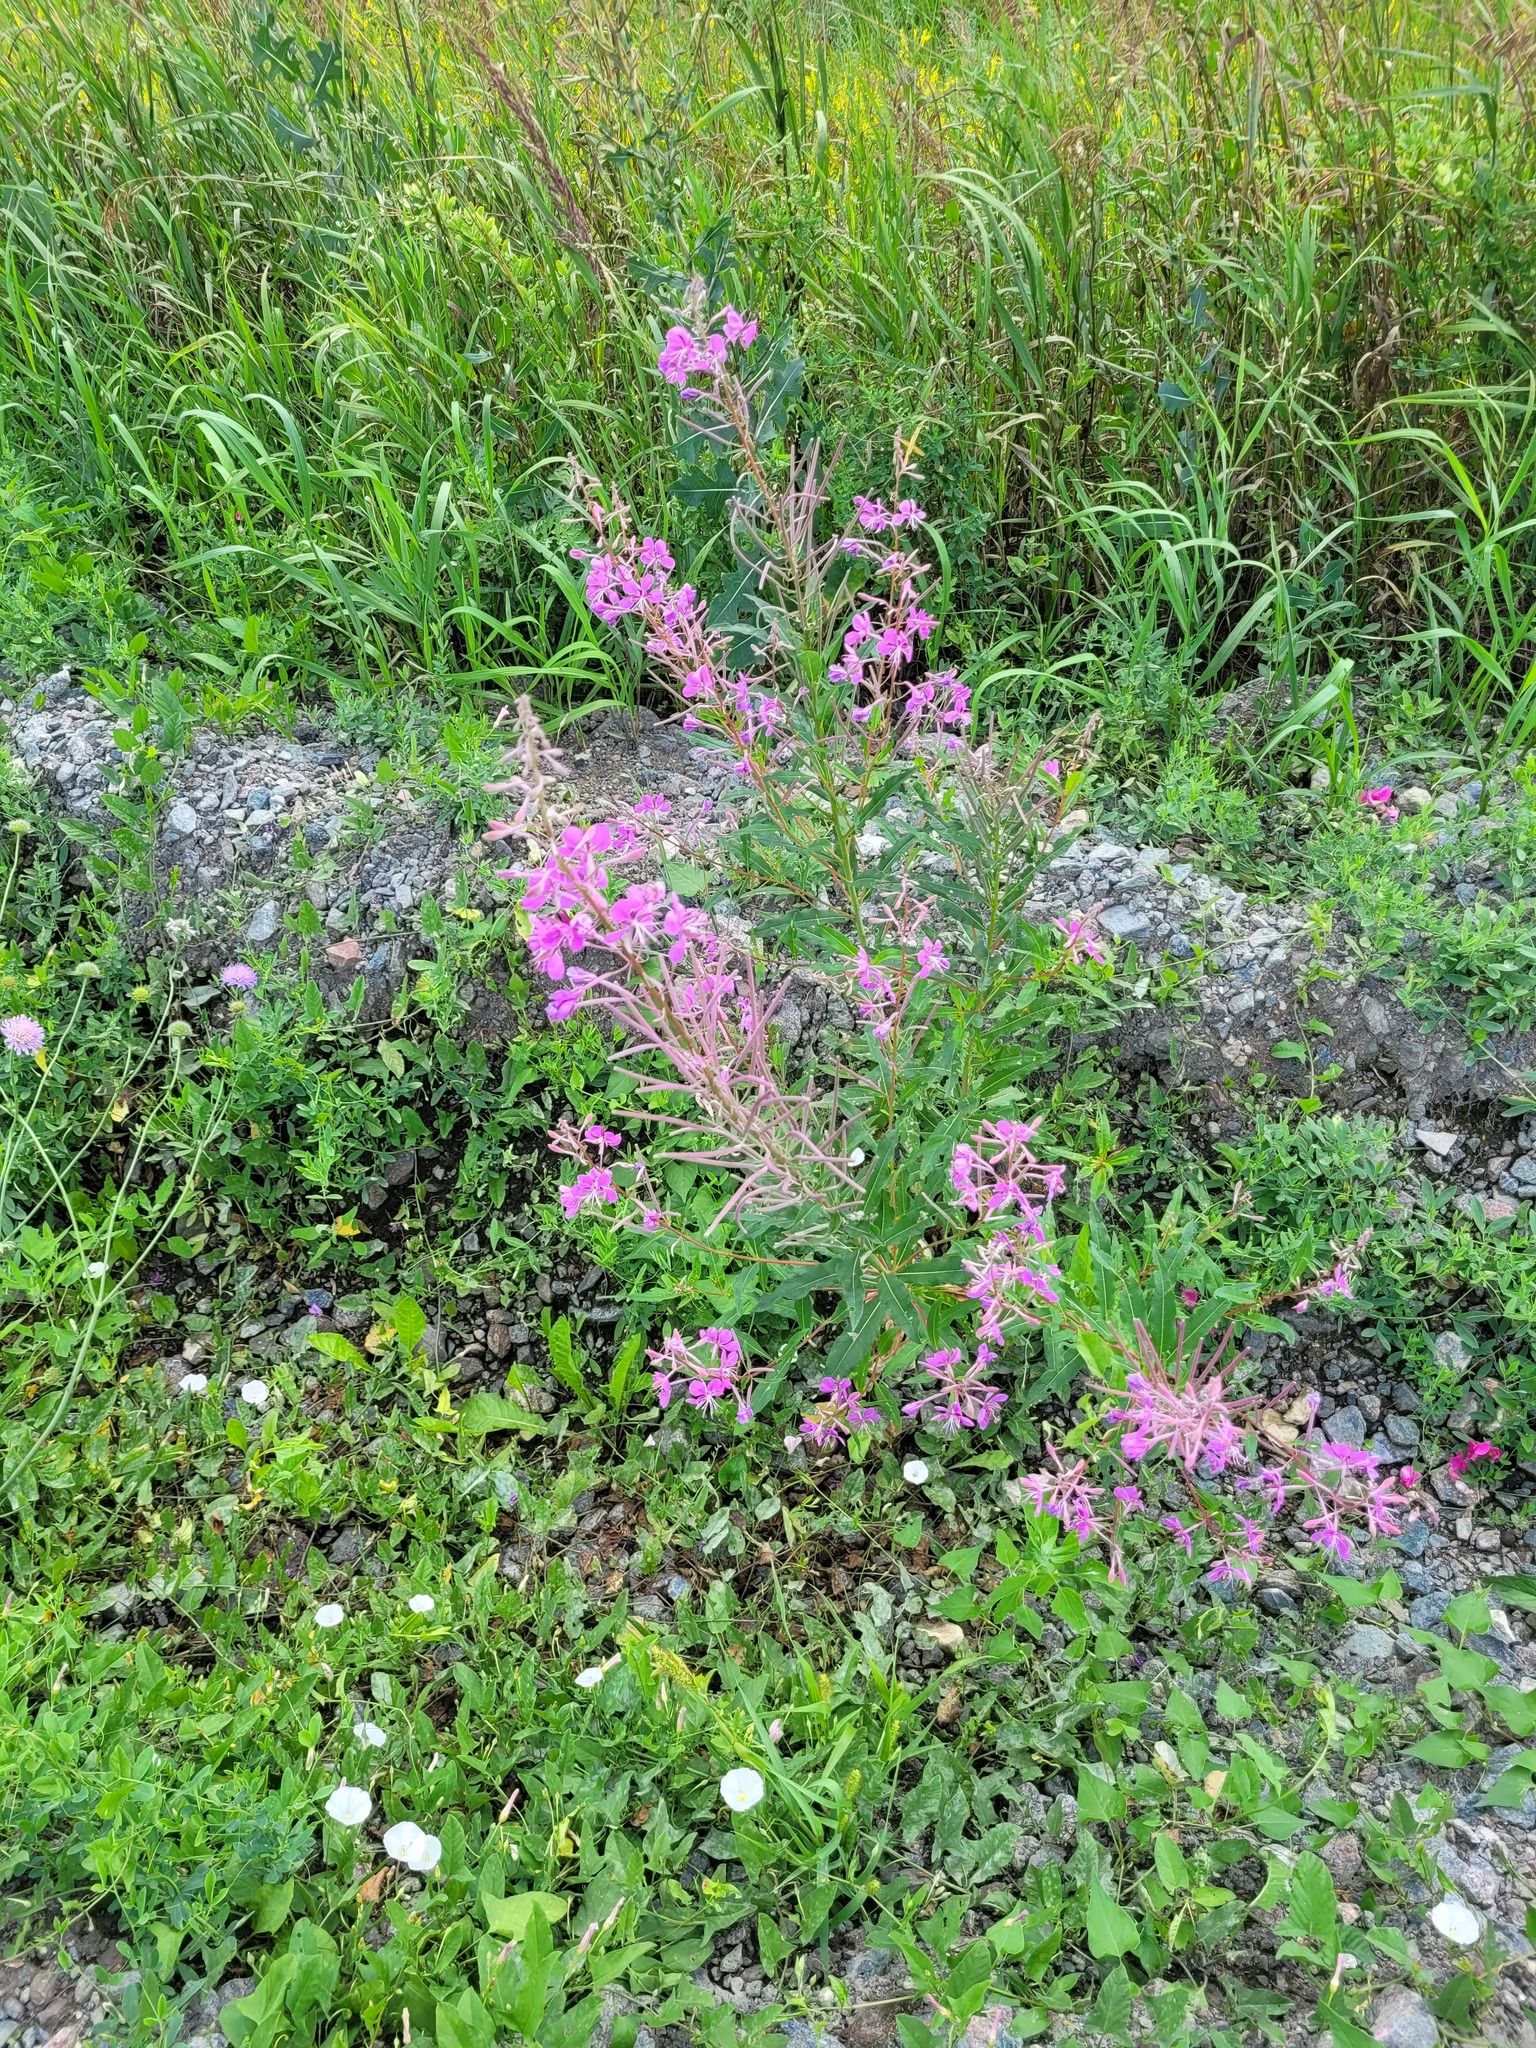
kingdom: Plantae
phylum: Tracheophyta
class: Magnoliopsida
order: Myrtales
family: Onagraceae
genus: Chamaenerion
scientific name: Chamaenerion angustifolium
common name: Fireweed
